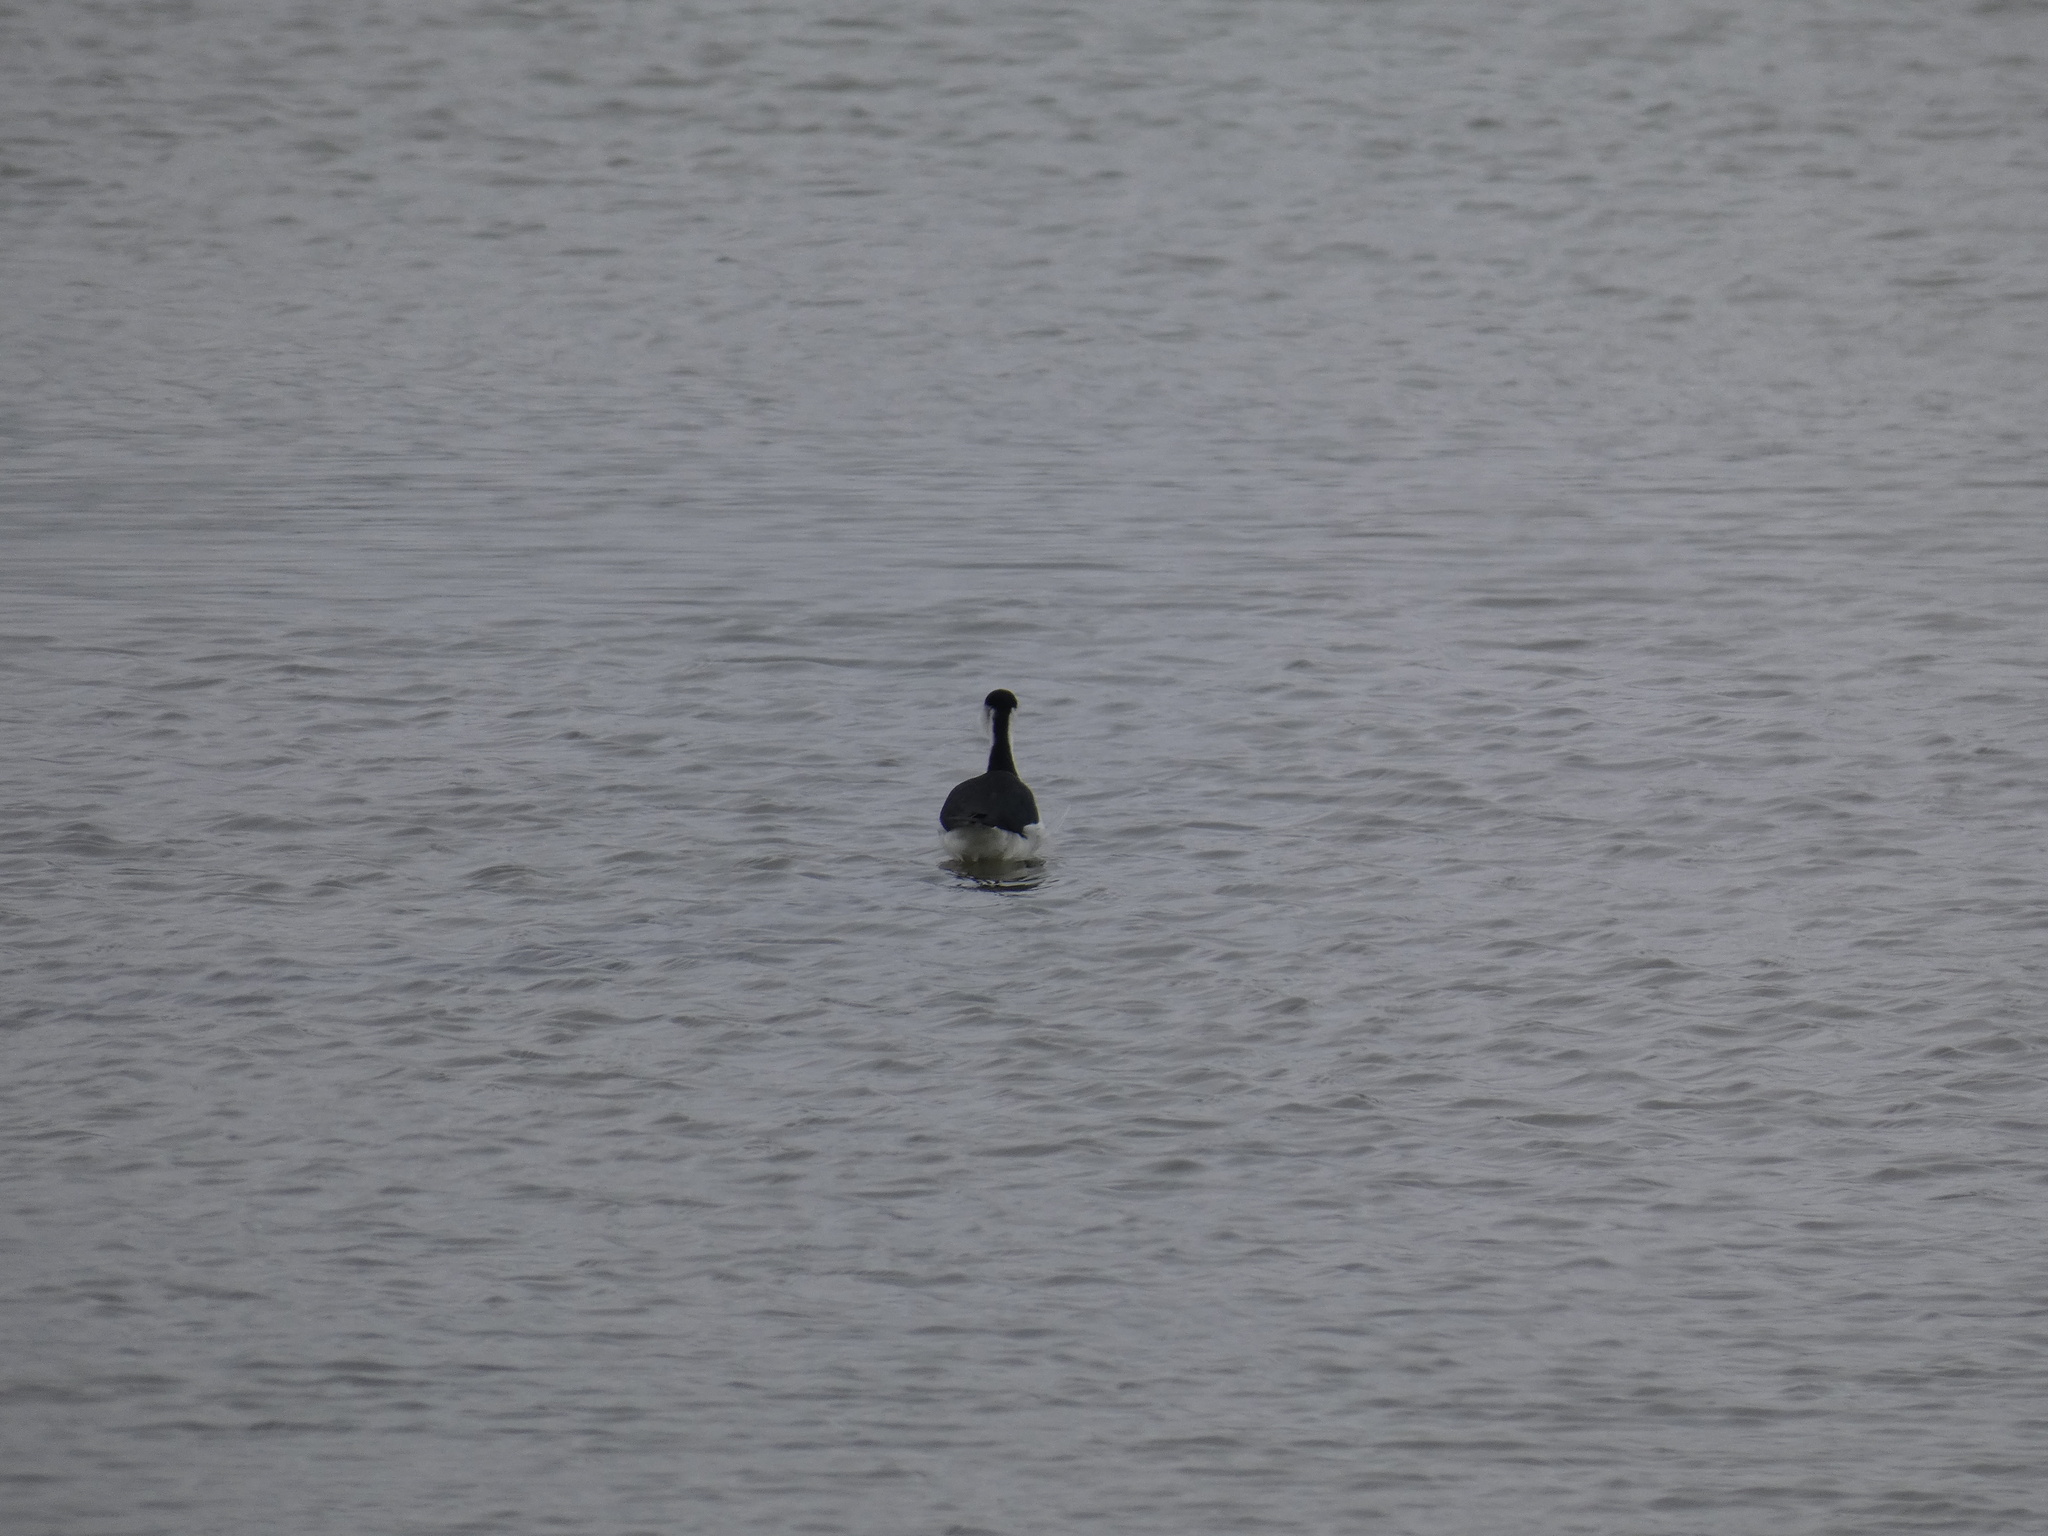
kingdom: Animalia
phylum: Chordata
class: Aves
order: Charadriiformes
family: Recurvirostridae
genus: Himantopus
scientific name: Himantopus mexicanus
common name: Black-necked stilt
